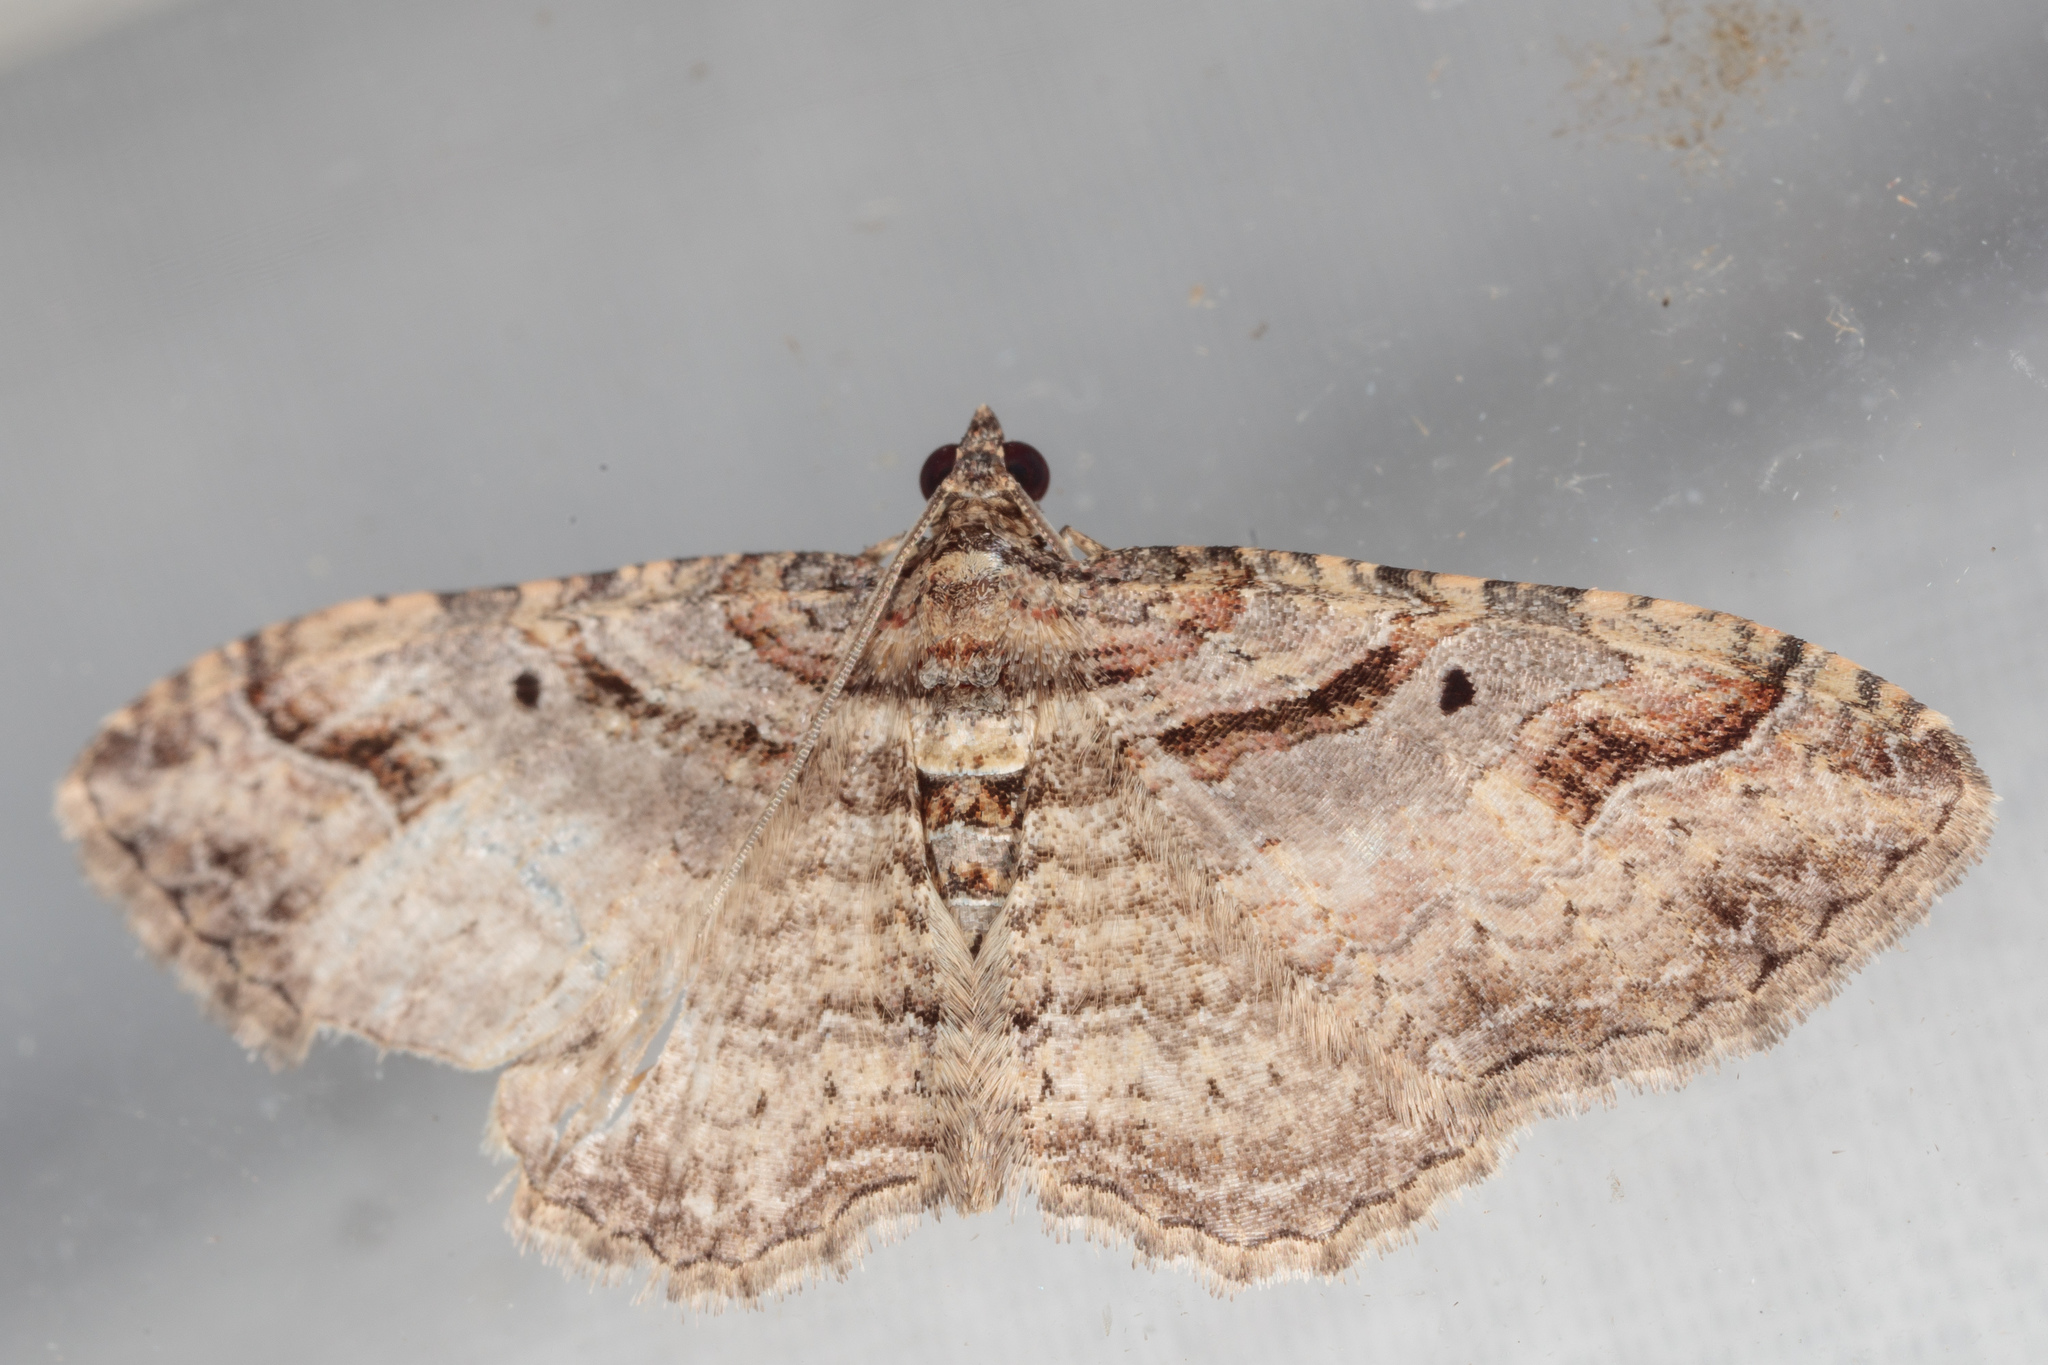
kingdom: Animalia
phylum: Arthropoda
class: Insecta
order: Lepidoptera
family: Geometridae
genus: Costaconvexa
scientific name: Costaconvexa centrostrigaria
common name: Bent-line carpet
